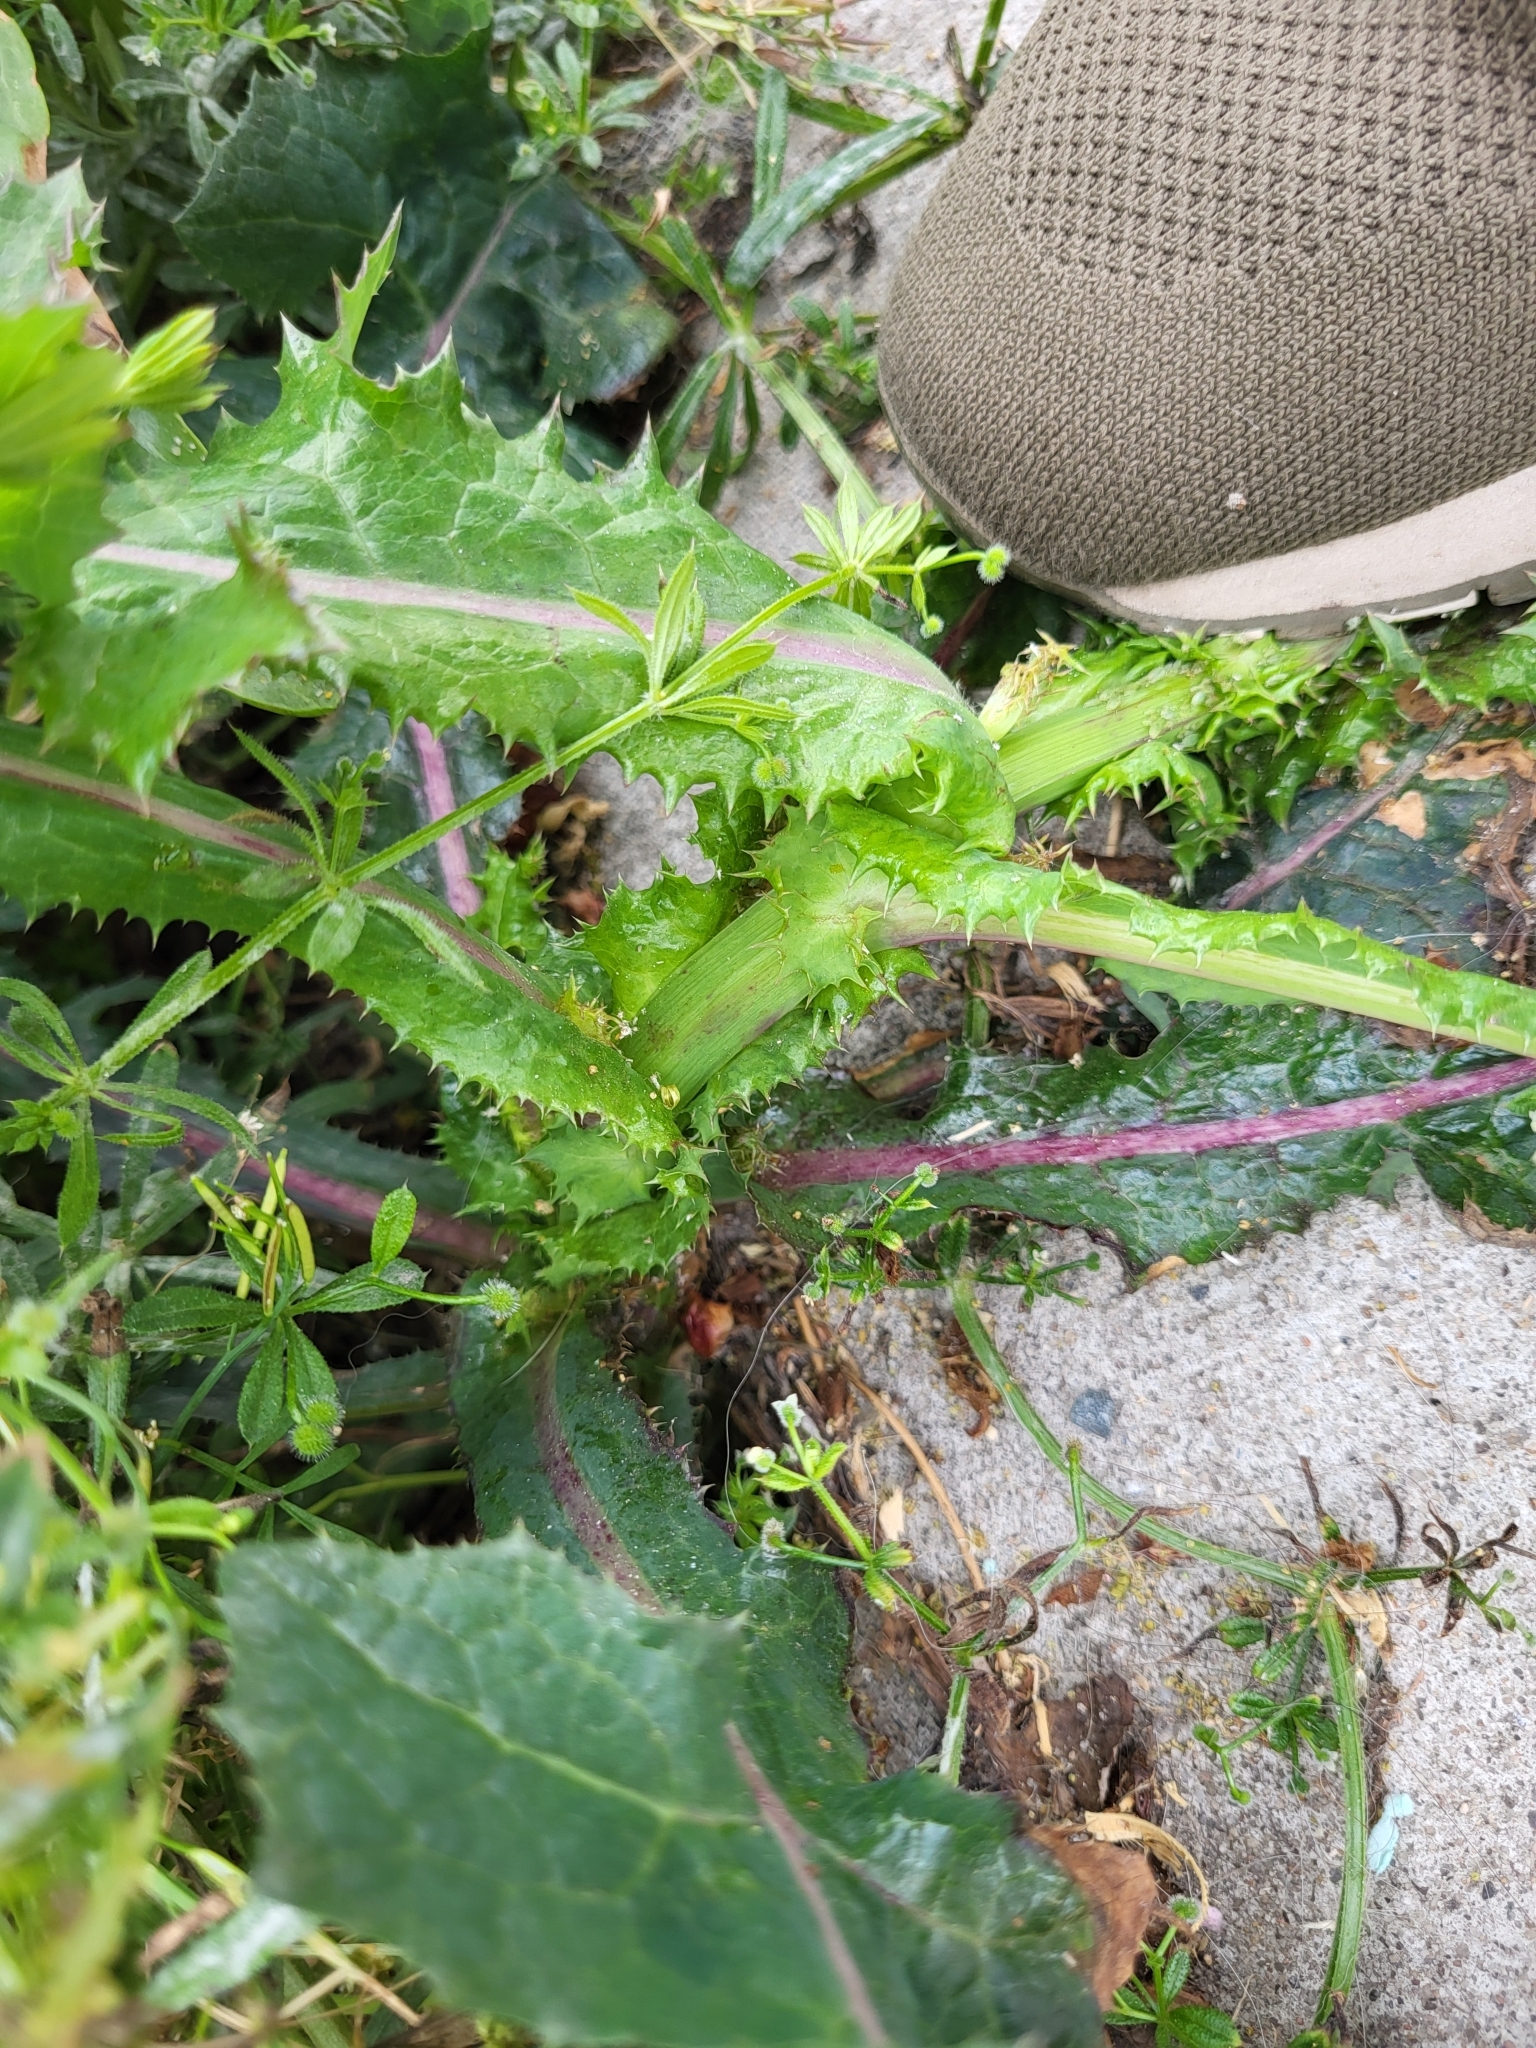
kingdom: Plantae
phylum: Tracheophyta
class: Magnoliopsida
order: Asterales
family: Asteraceae
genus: Sonchus
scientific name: Sonchus asper
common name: Prickly sow-thistle
